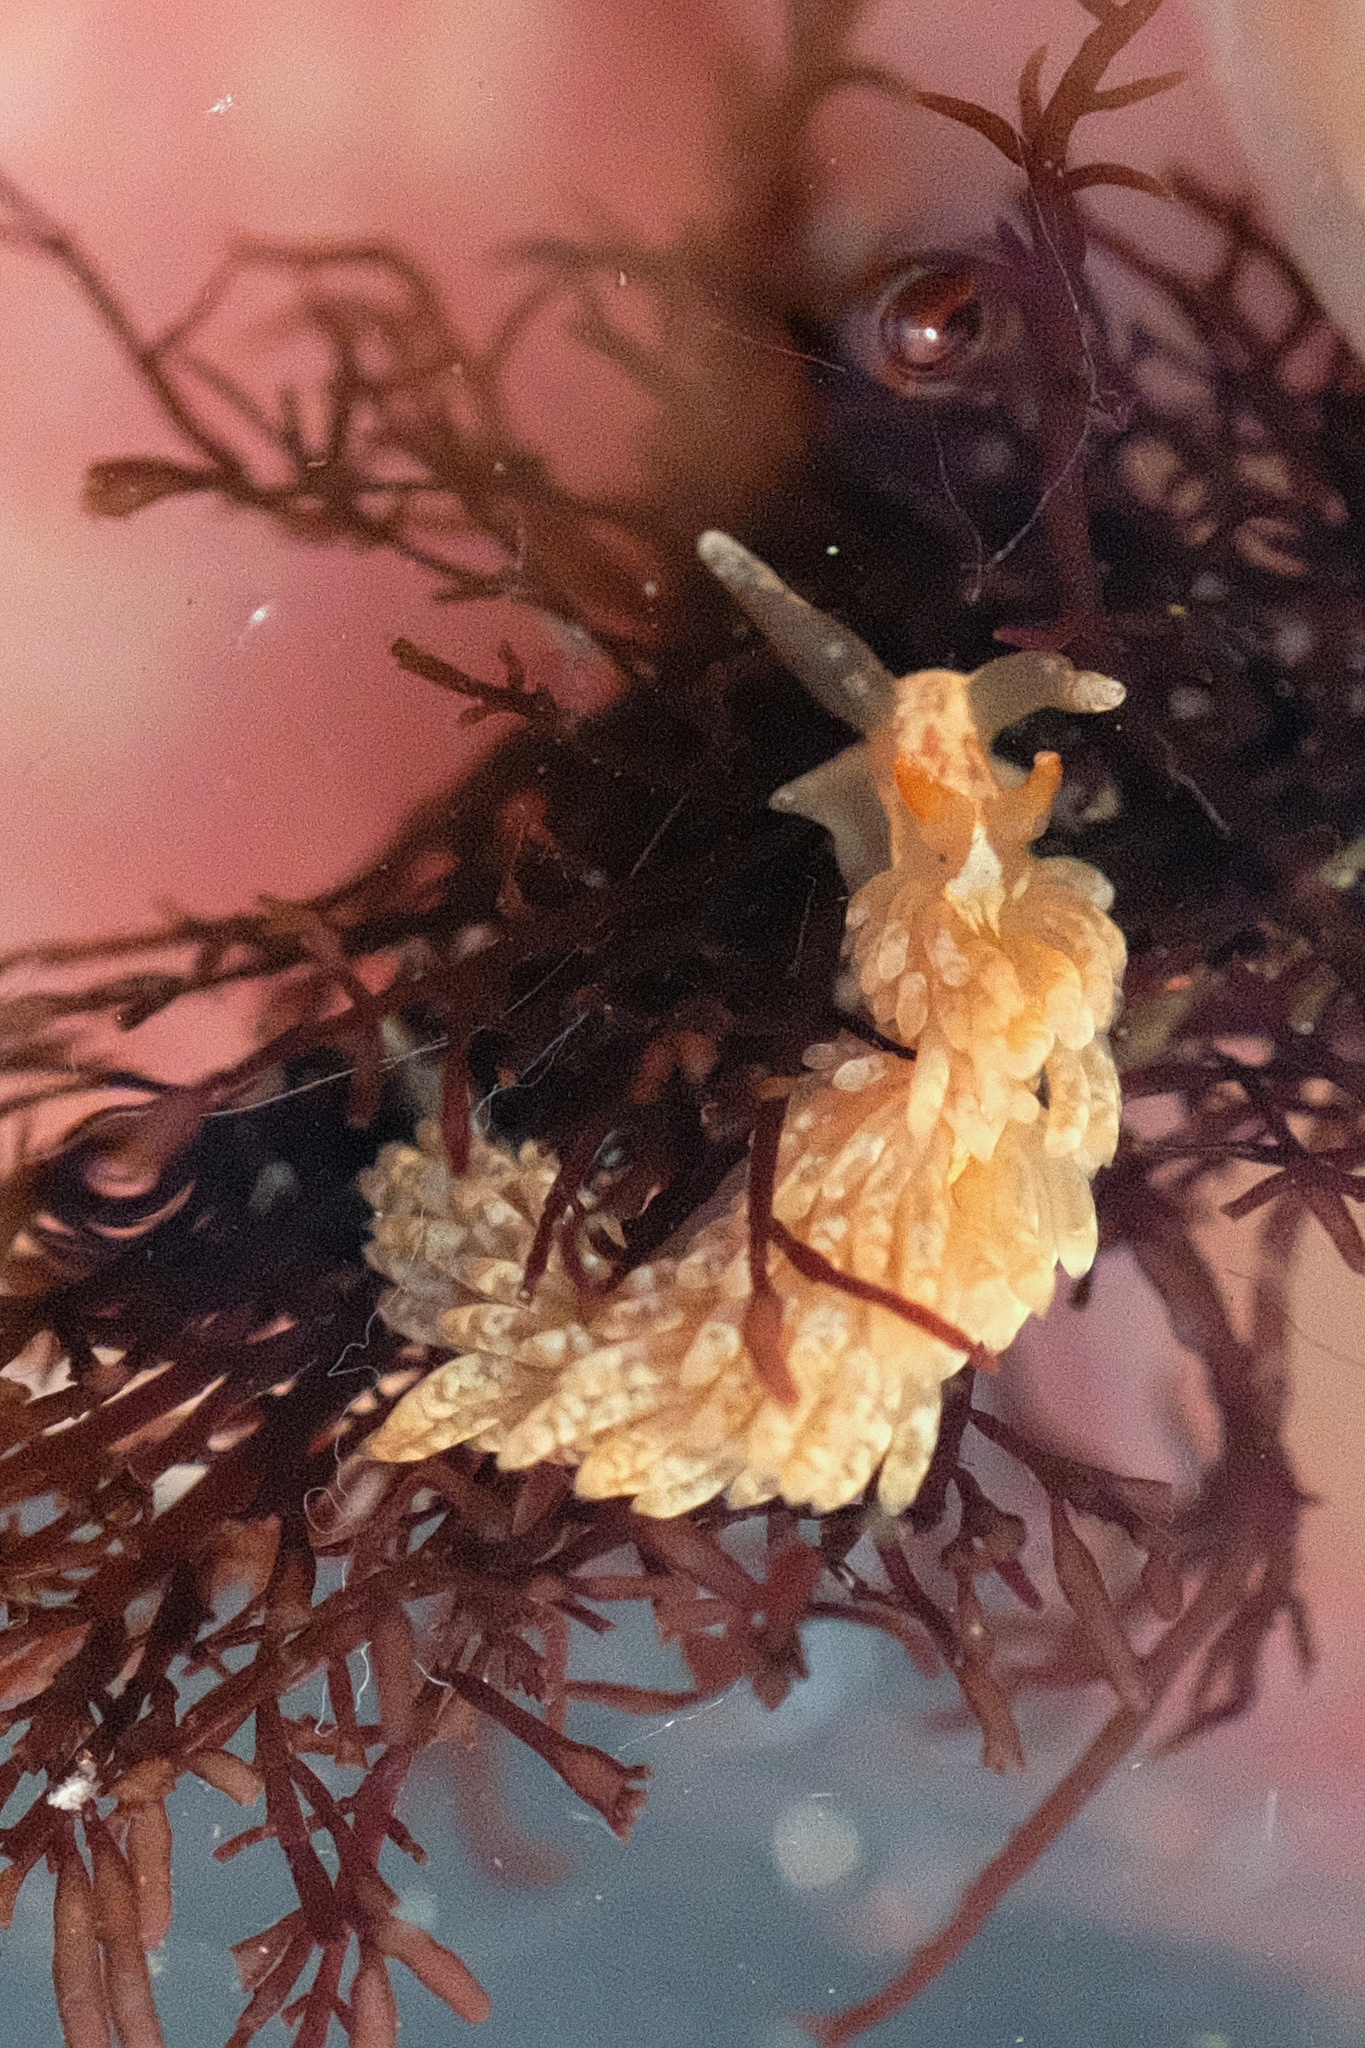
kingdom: Animalia
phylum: Mollusca
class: Gastropoda
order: Nudibranchia
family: Aeolidiidae
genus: Anteaeolidiella
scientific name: Anteaeolidiella chromosoma
